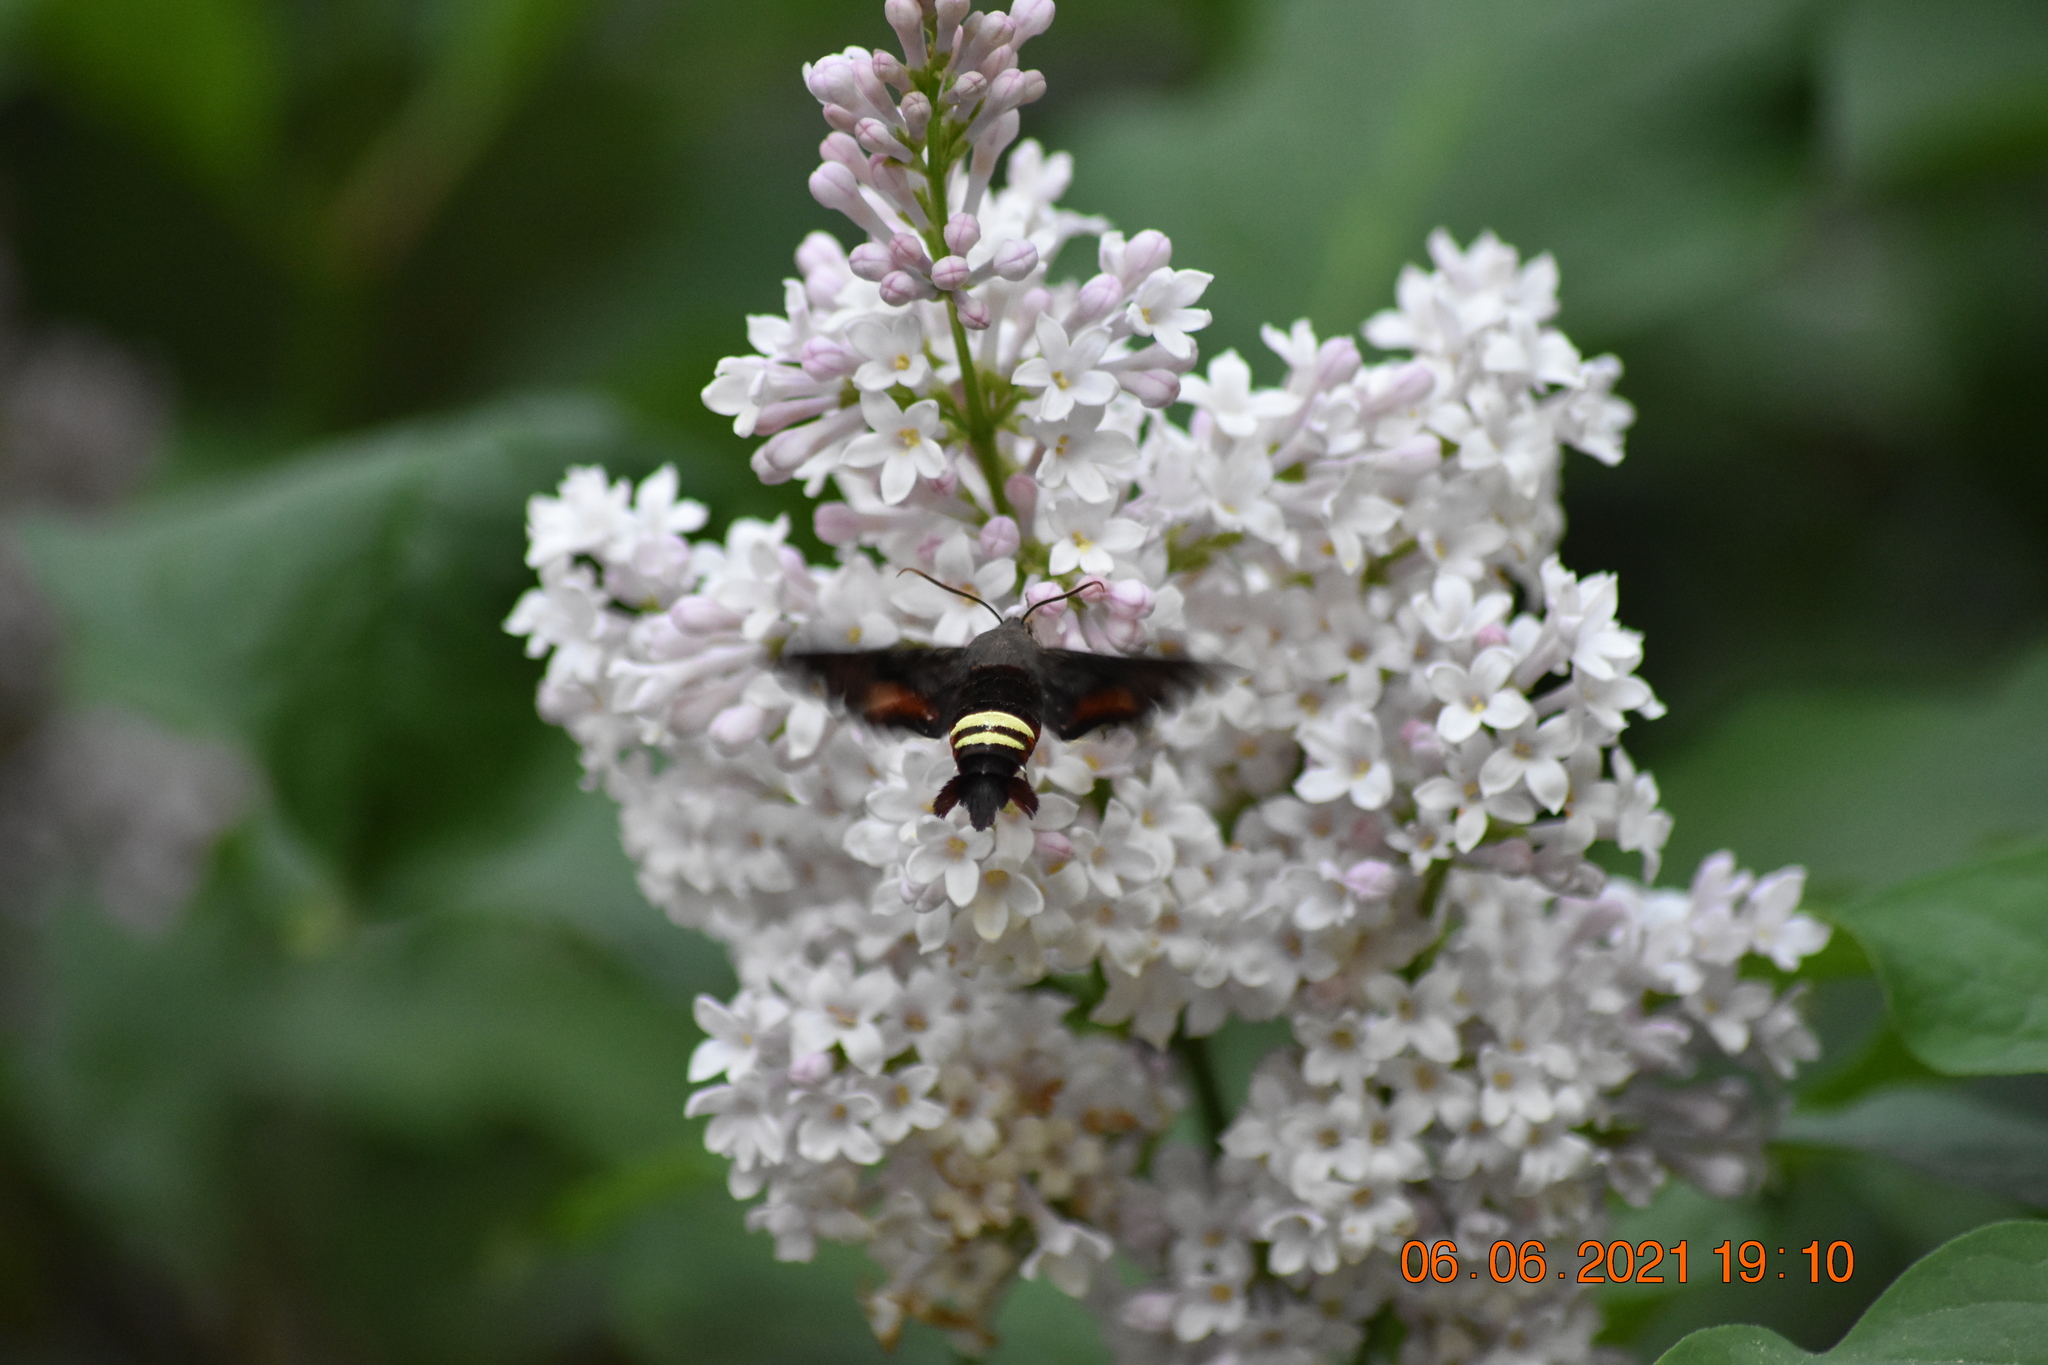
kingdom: Animalia
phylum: Arthropoda
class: Insecta
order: Lepidoptera
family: Sphingidae
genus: Amphion
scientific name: Amphion floridensis
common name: Nessus sphinx
